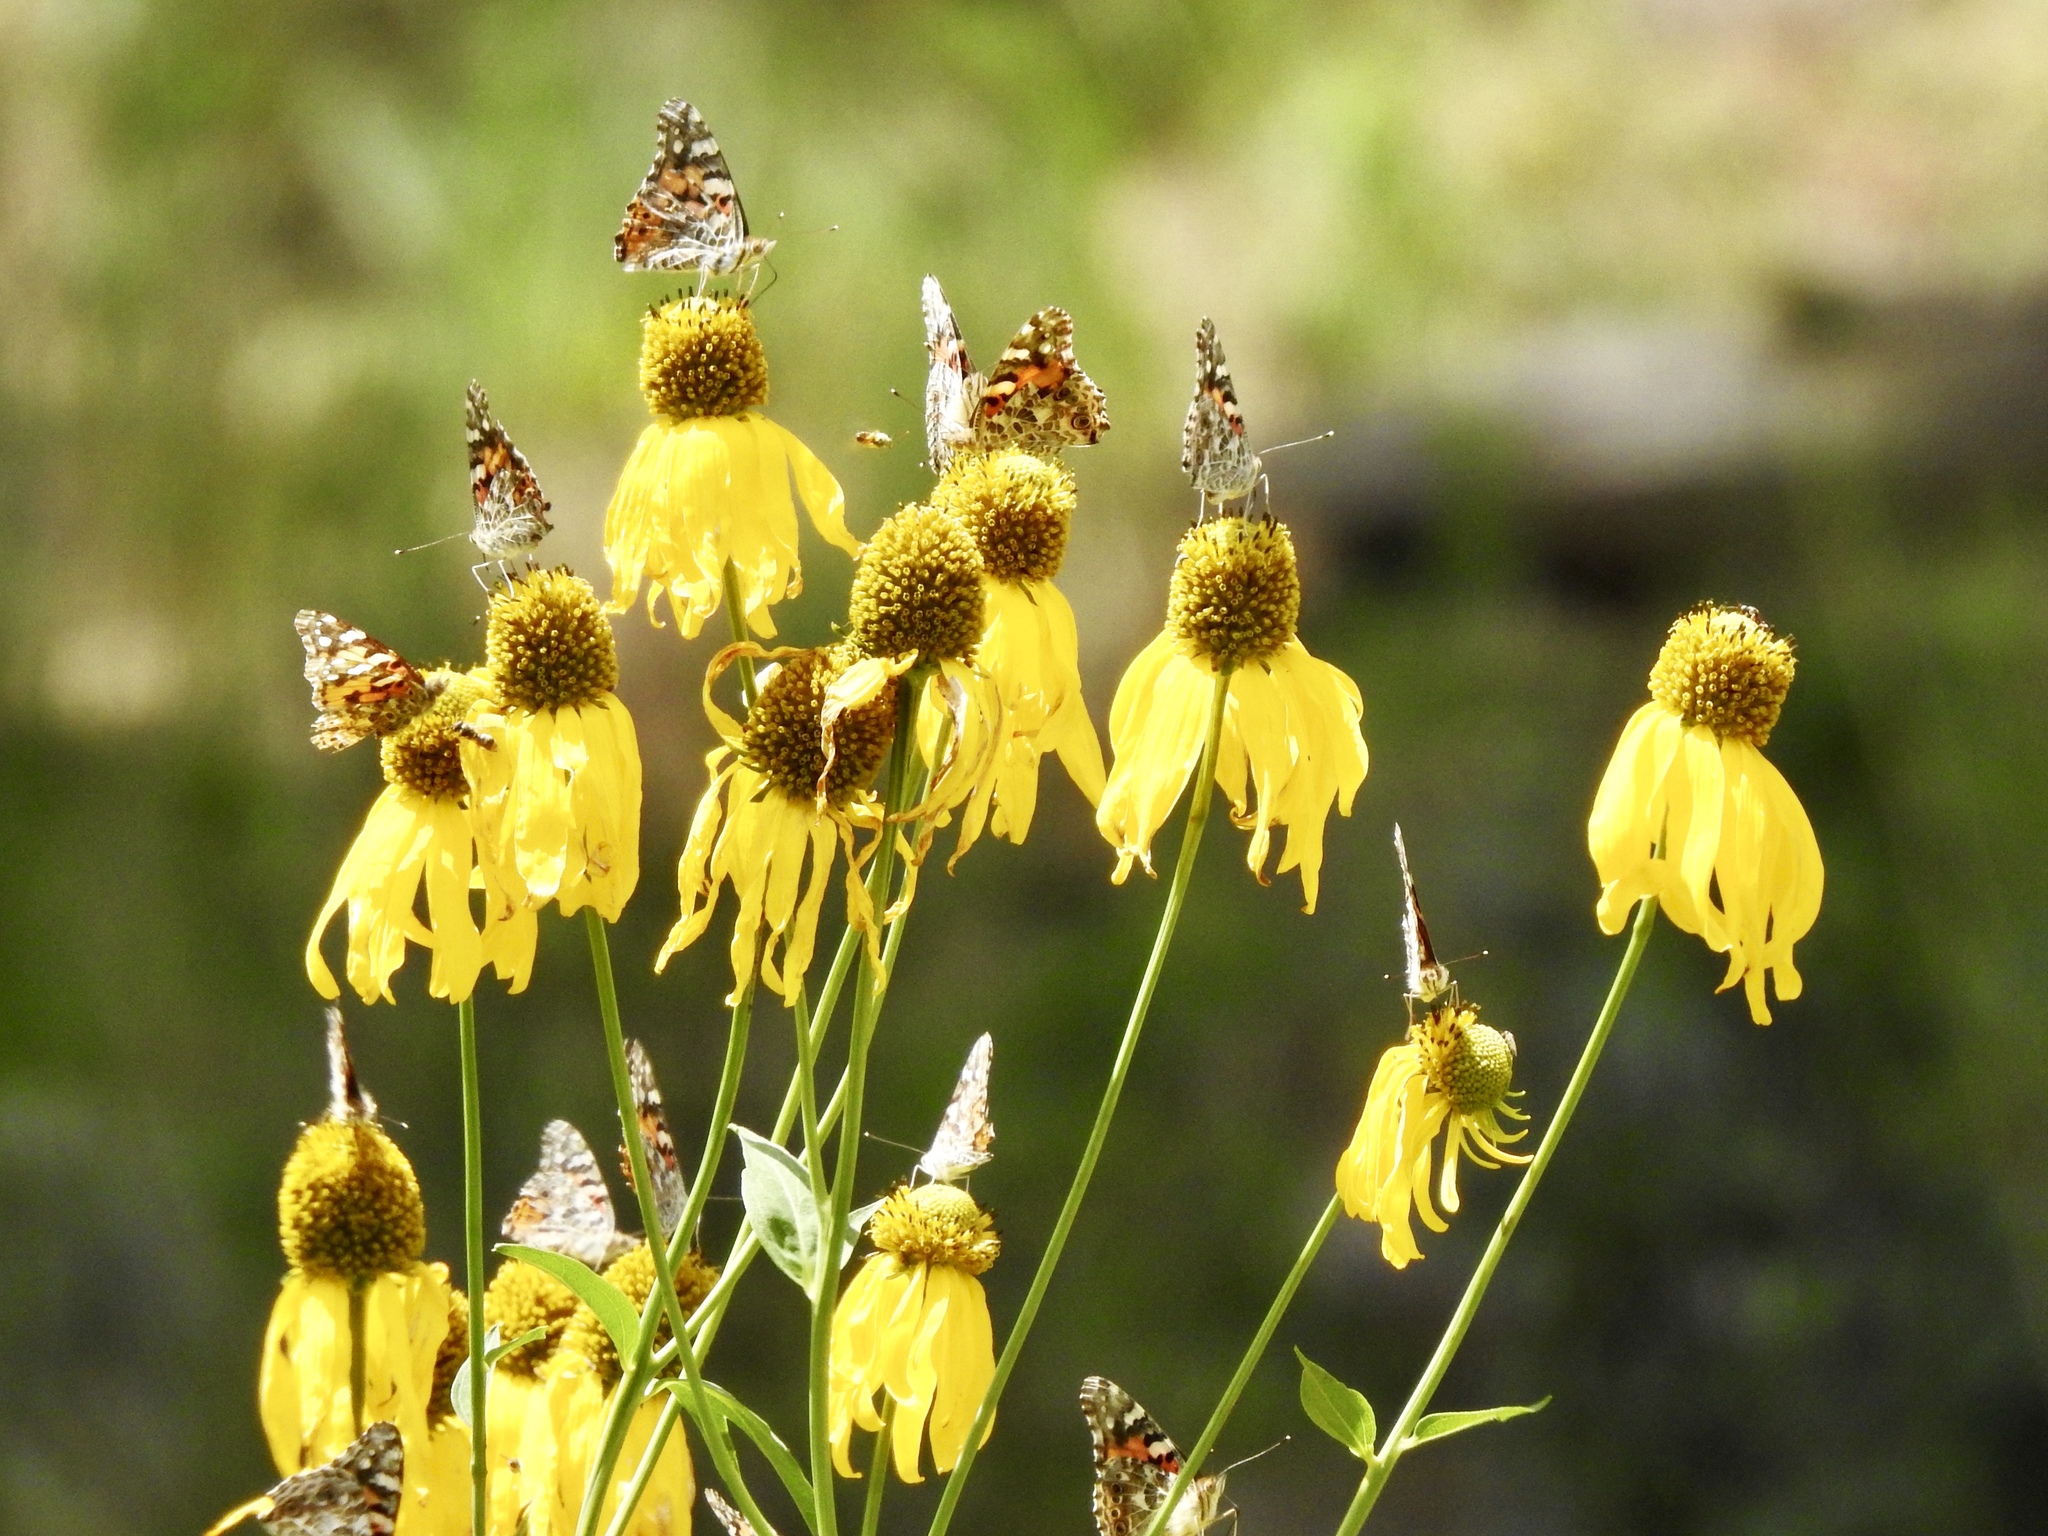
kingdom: Animalia
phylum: Arthropoda
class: Insecta
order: Lepidoptera
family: Nymphalidae
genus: Vanessa
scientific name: Vanessa cardui
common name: Painted lady
